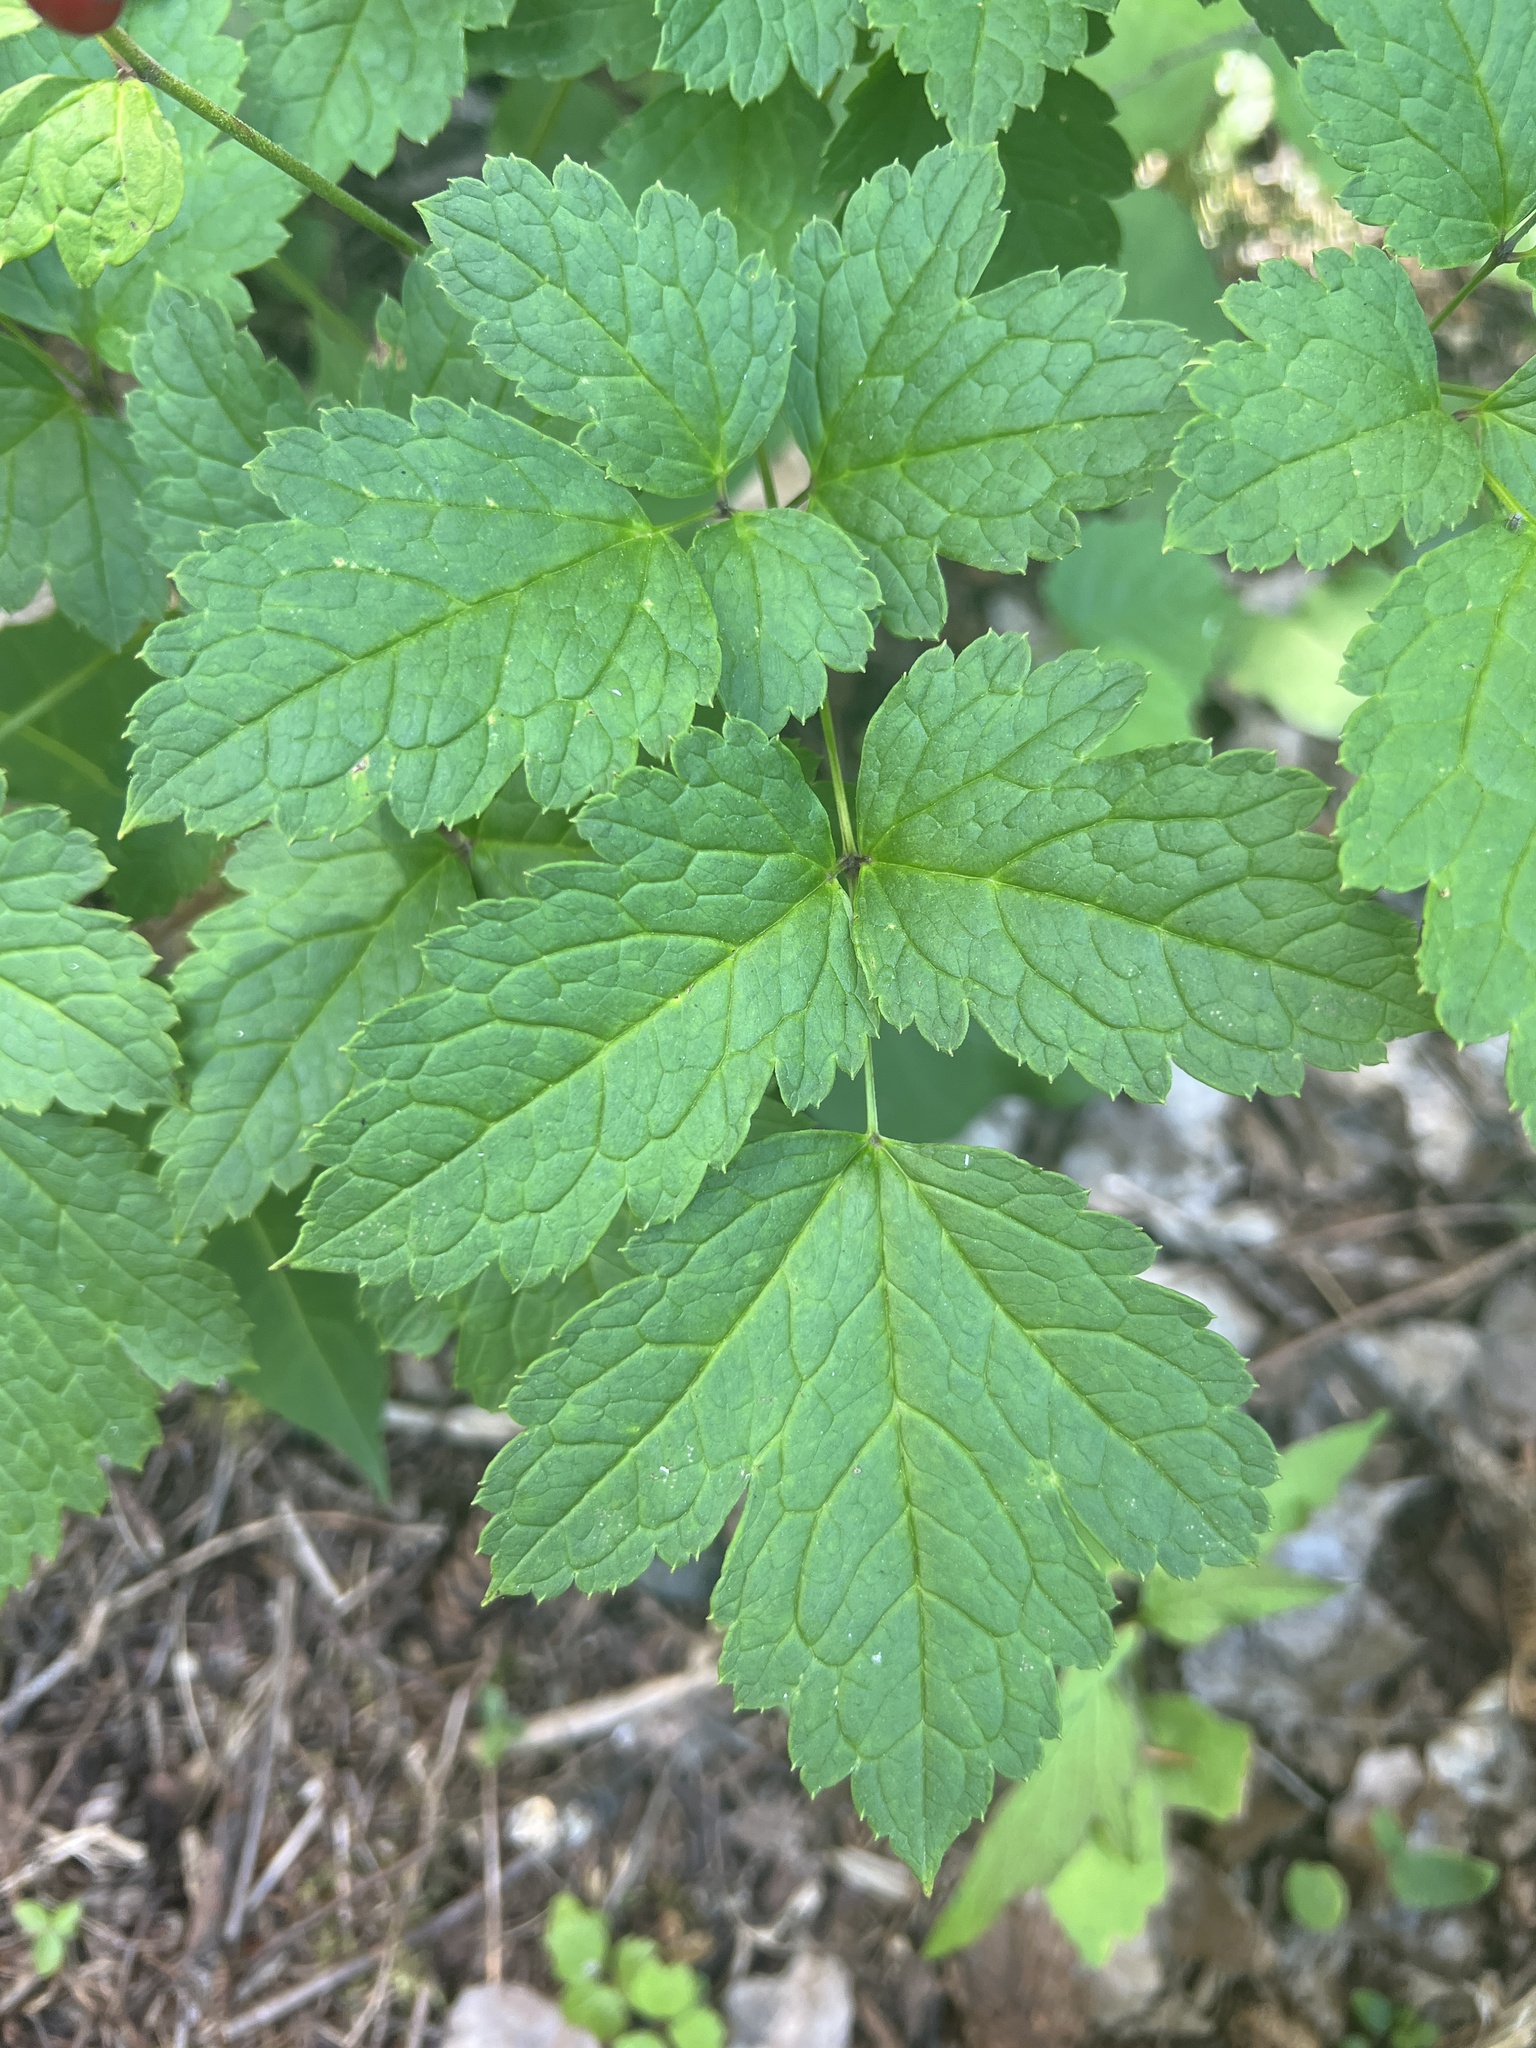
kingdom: Plantae
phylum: Tracheophyta
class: Magnoliopsida
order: Ranunculales
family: Ranunculaceae
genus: Actaea
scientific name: Actaea rubra
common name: Red baneberry
